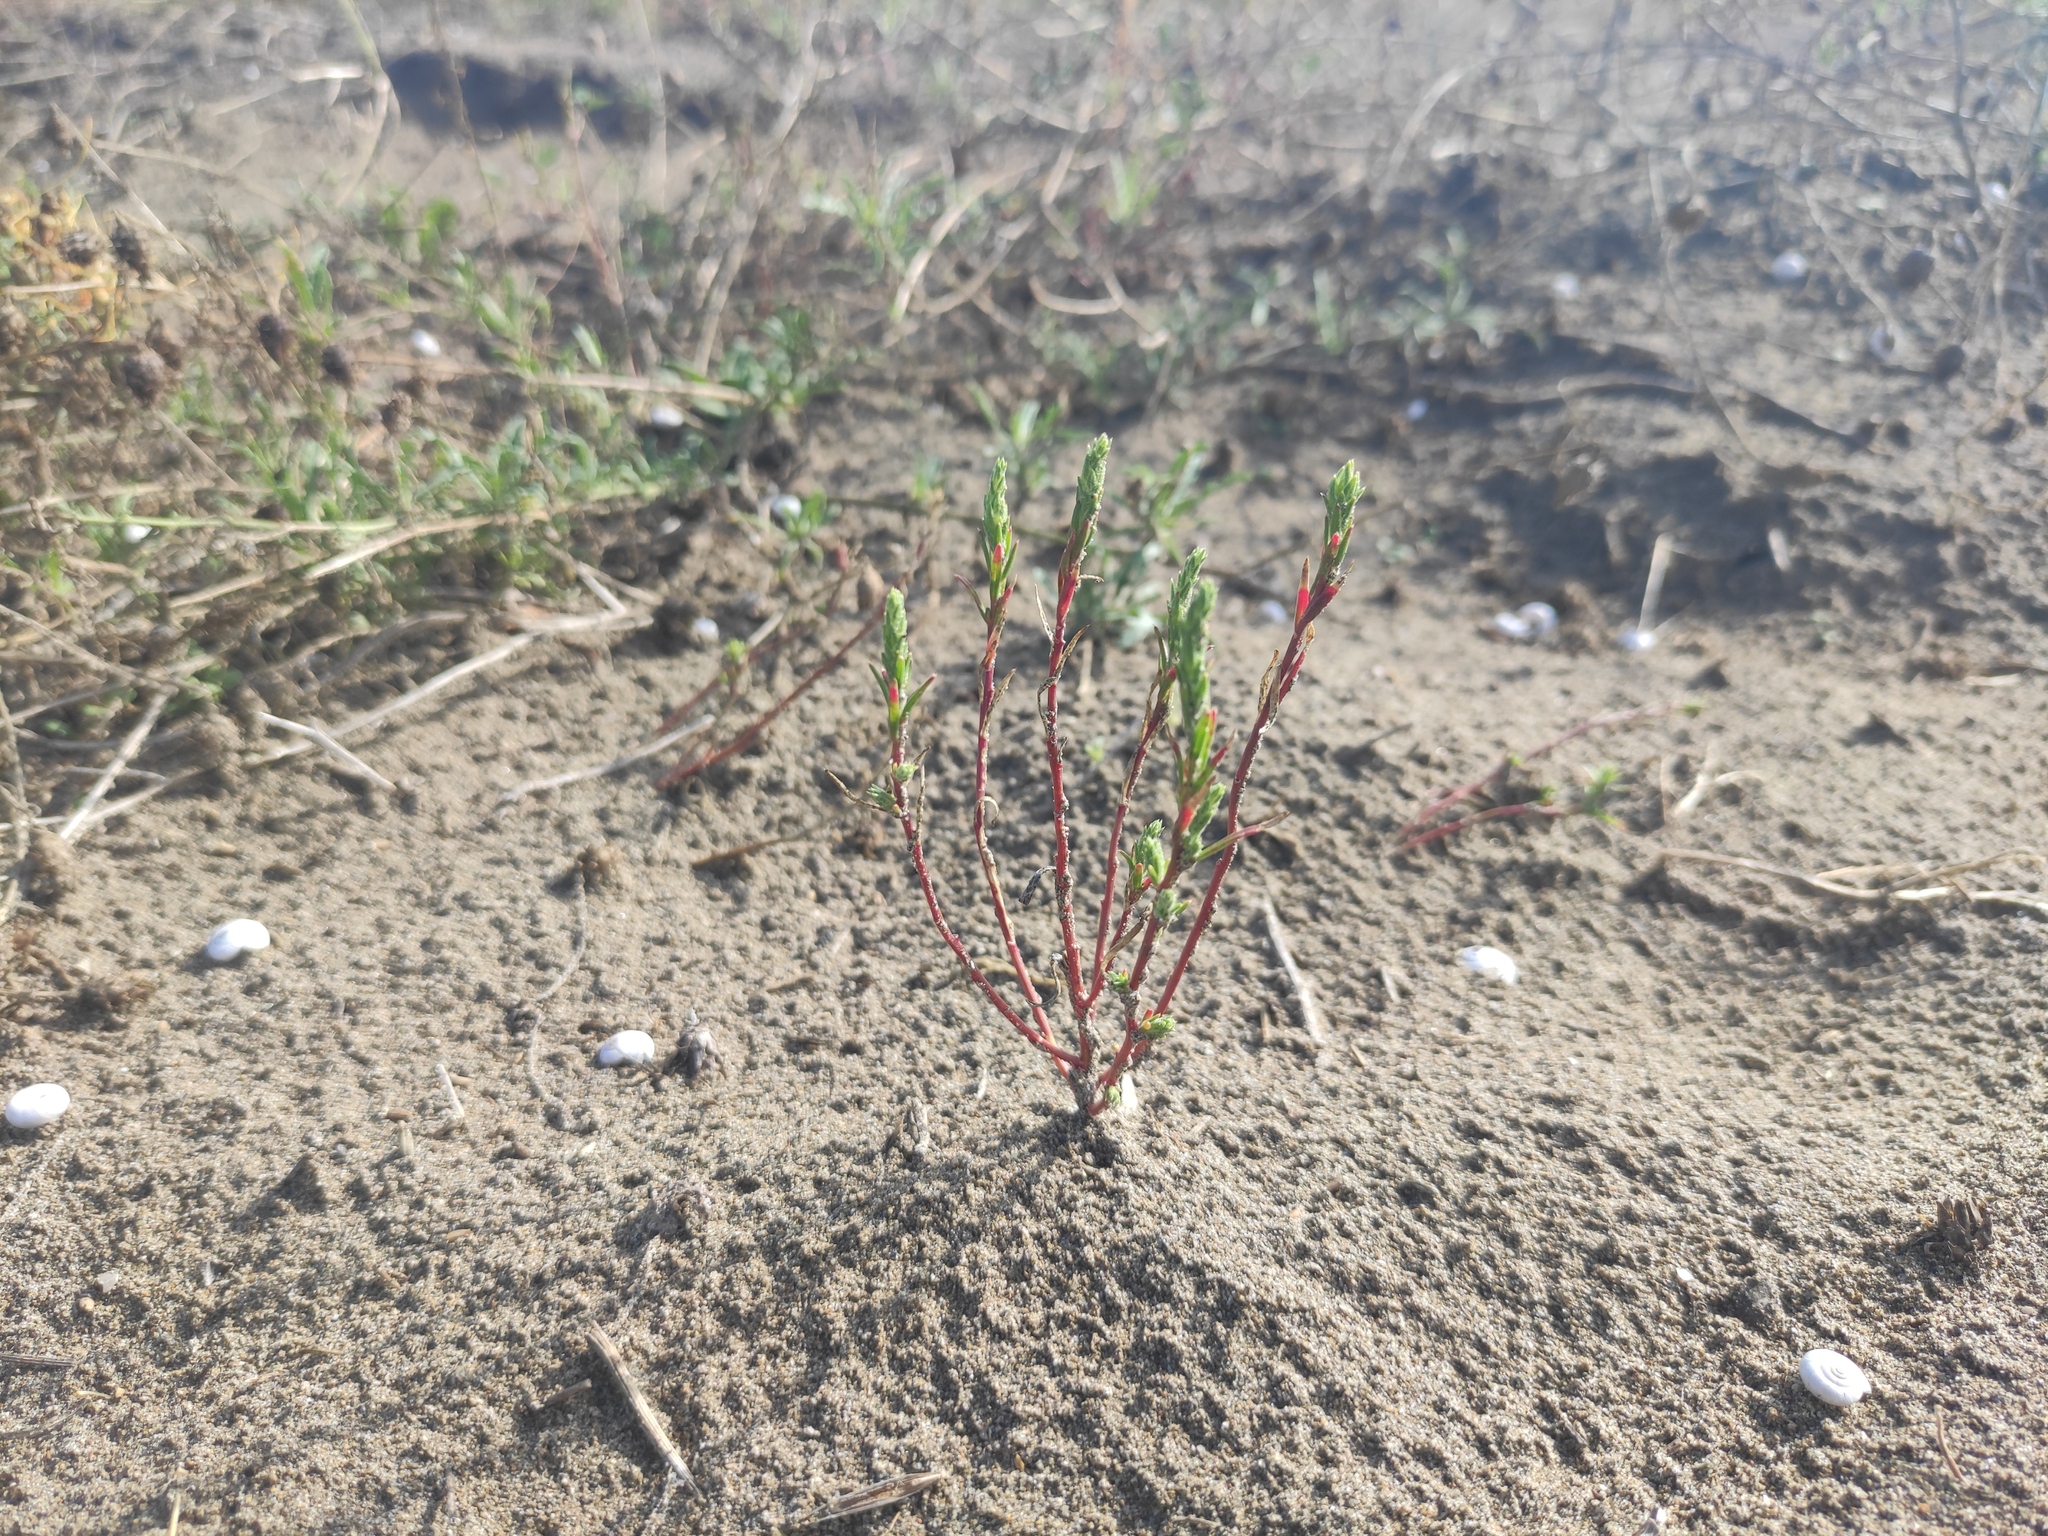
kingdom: Plantae
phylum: Tracheophyta
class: Magnoliopsida
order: Caryophyllales
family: Amaranthaceae
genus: Corispermum
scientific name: Corispermum gallicum
